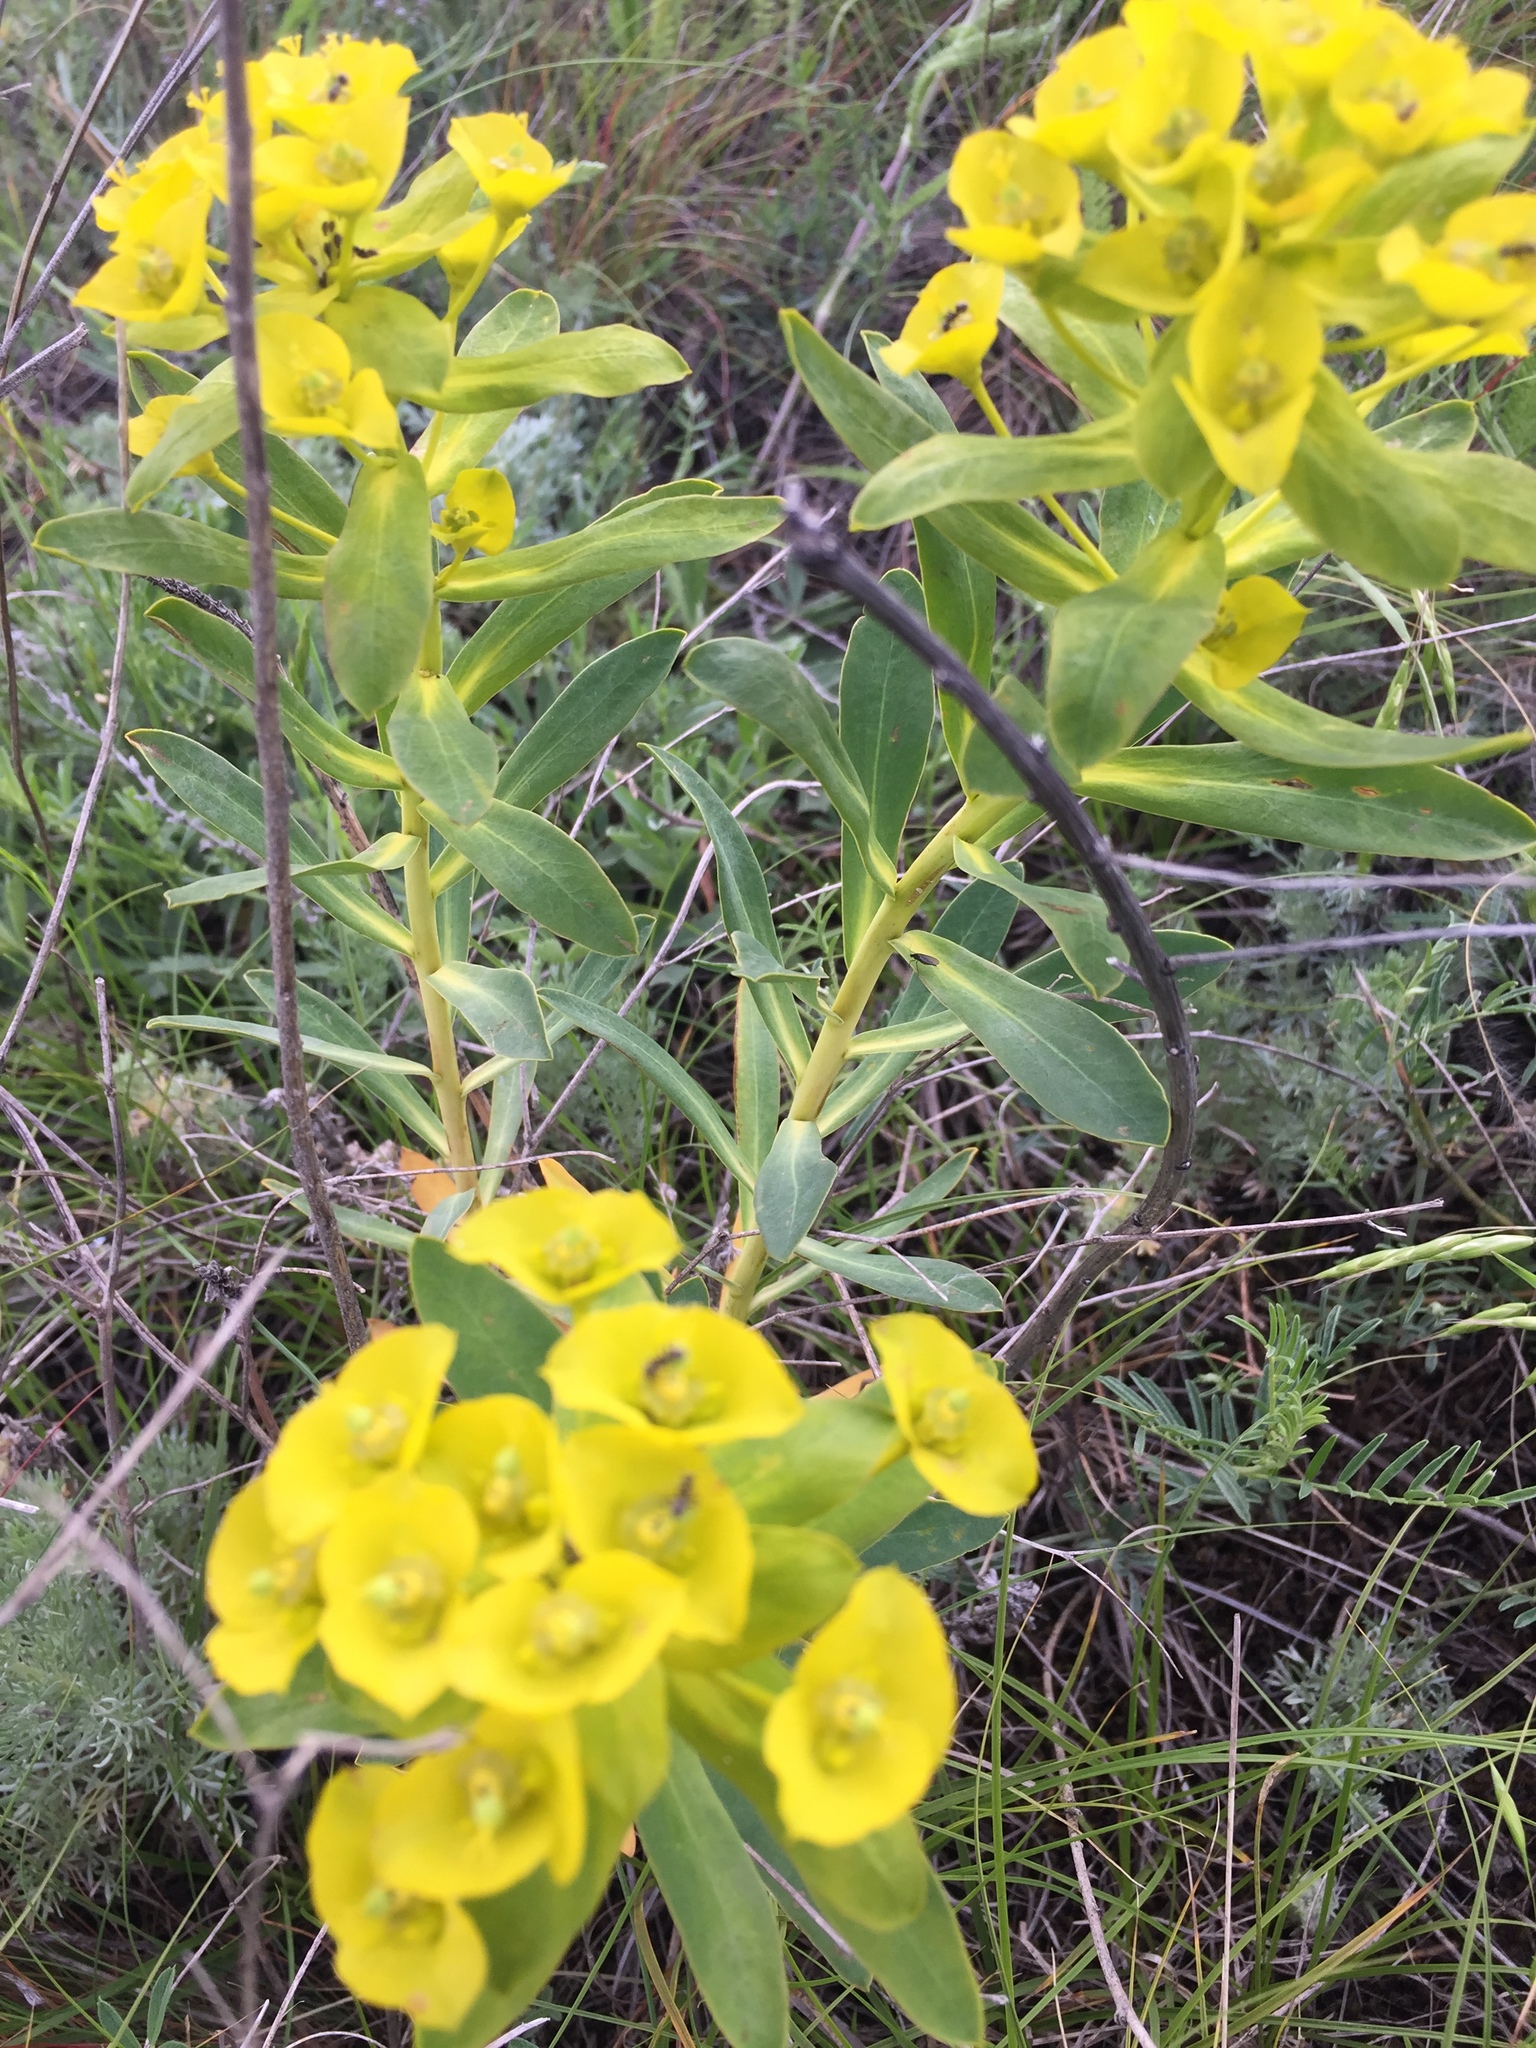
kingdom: Plantae
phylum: Tracheophyta
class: Magnoliopsida
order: Malpighiales
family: Euphorbiaceae
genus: Euphorbia
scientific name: Euphorbia stepposa
